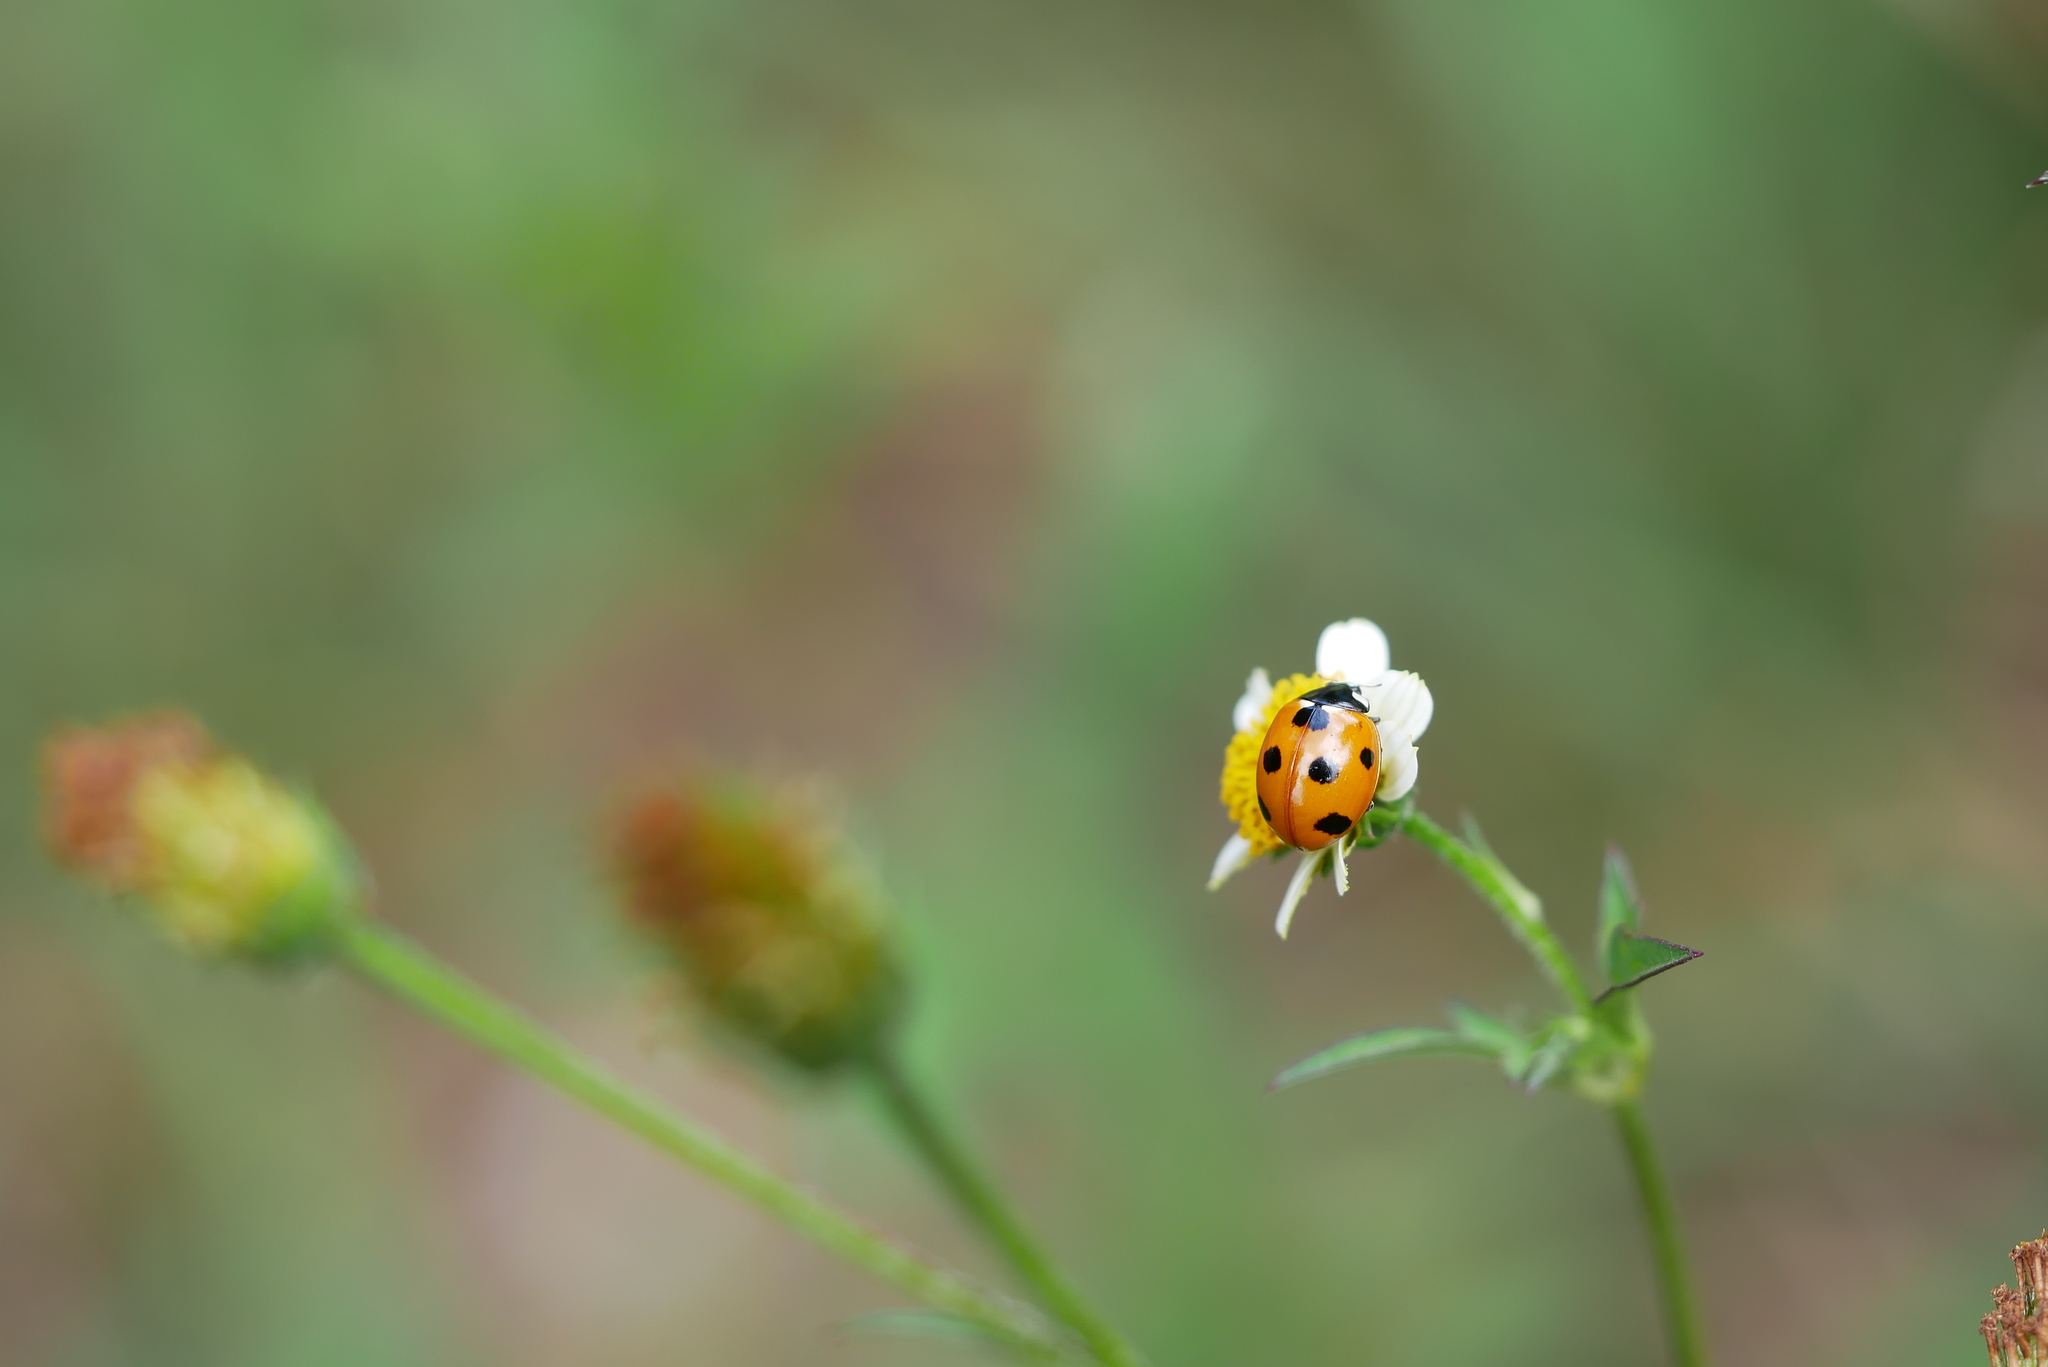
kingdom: Animalia
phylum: Arthropoda
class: Insecta
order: Coleoptera
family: Coccinellidae
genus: Coccinella
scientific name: Coccinella septempunctata
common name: Sevenspotted lady beetle
